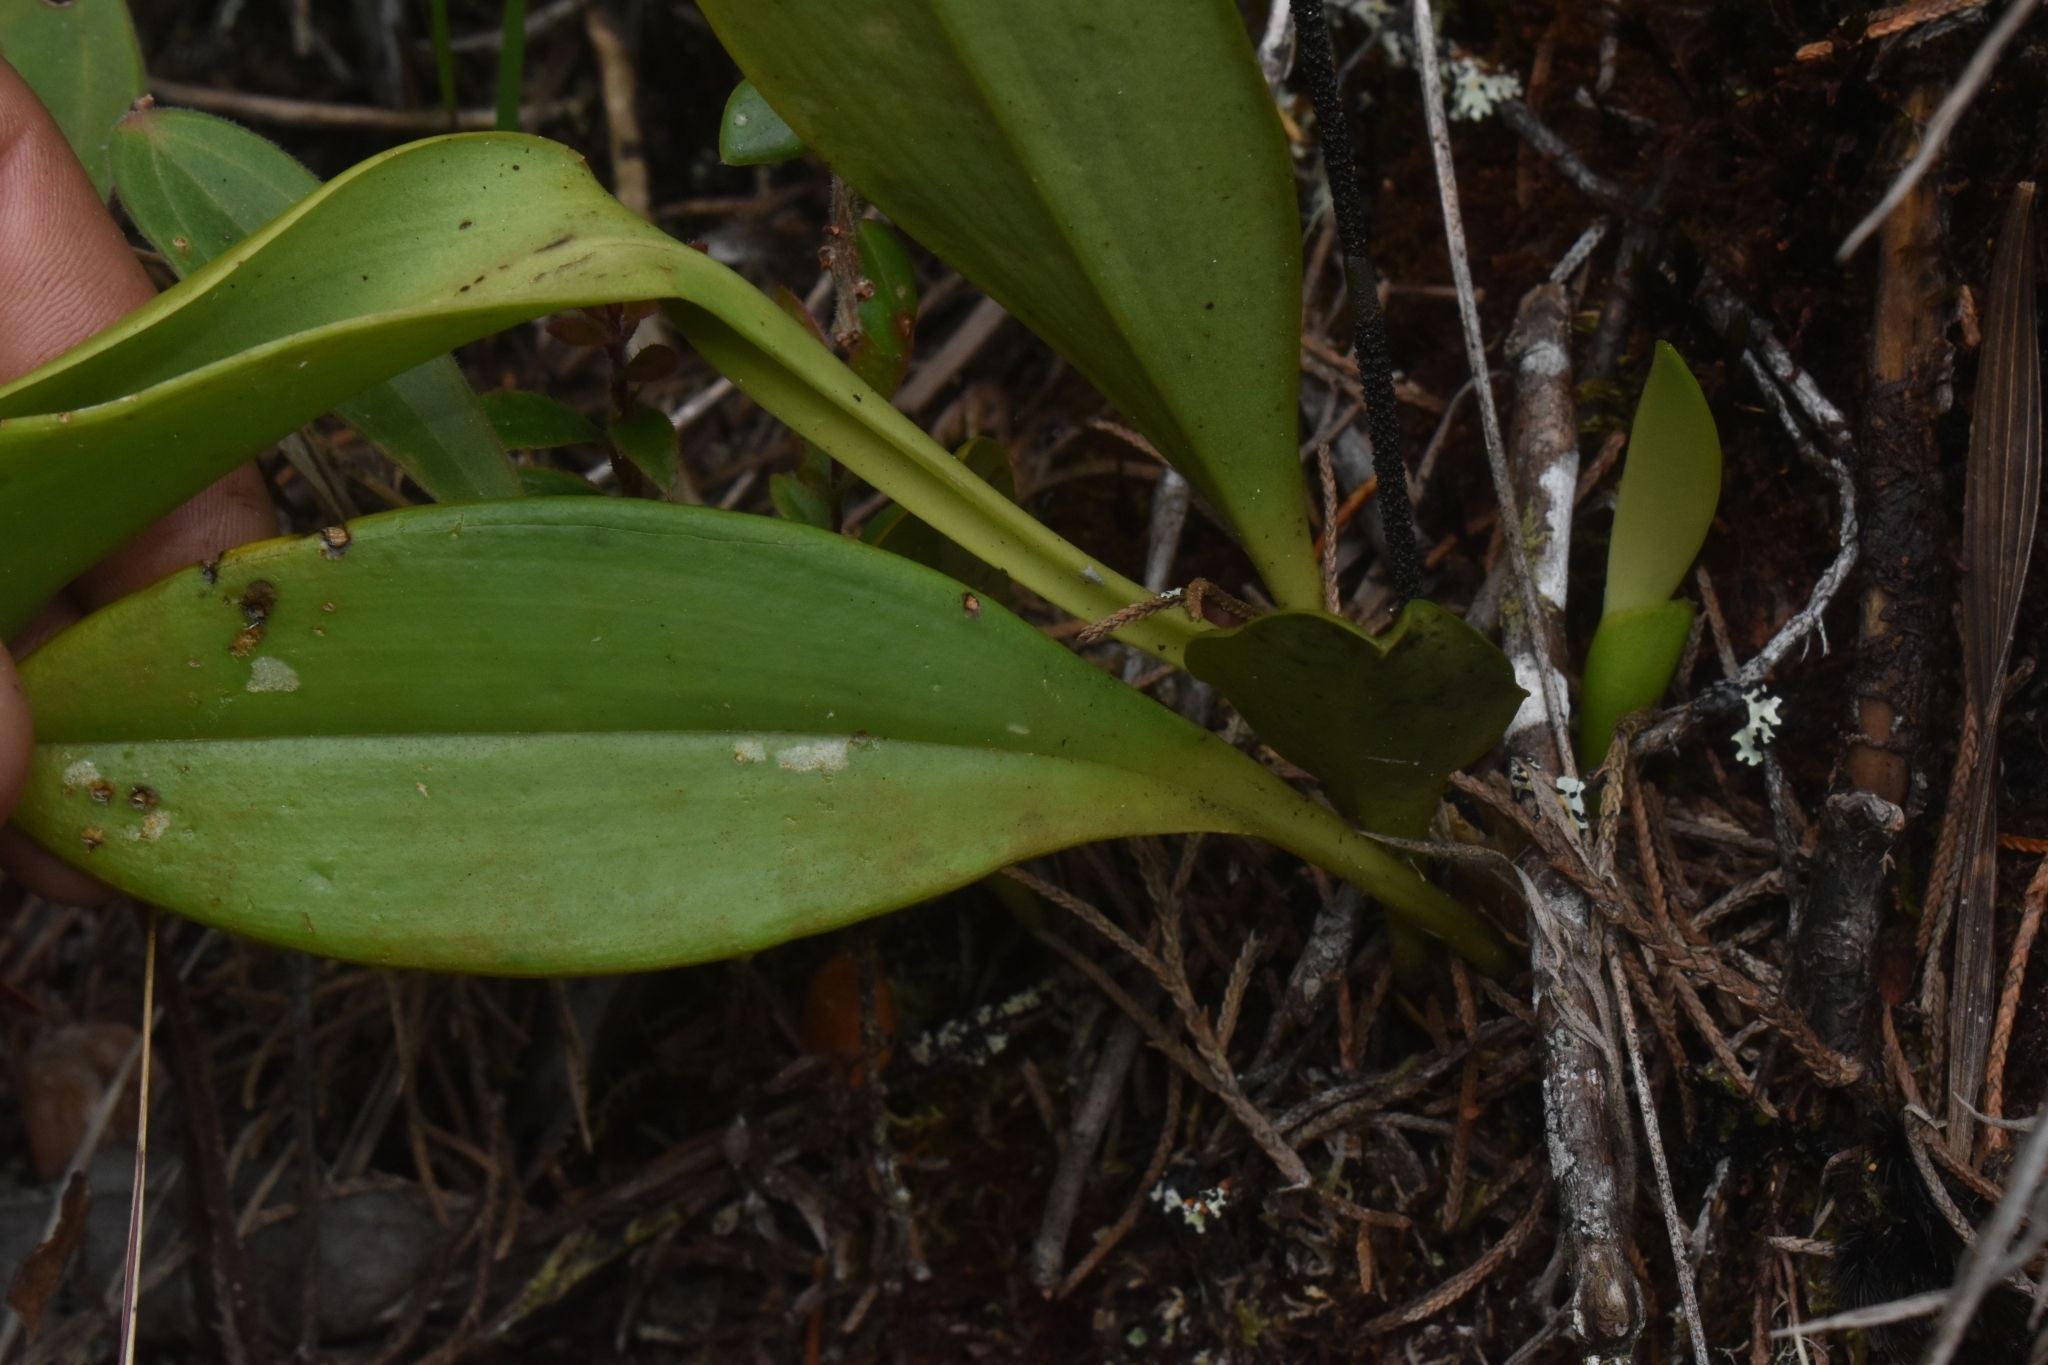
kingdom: Plantae
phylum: Tracheophyta
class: Liliopsida
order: Asparagales
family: Orchidaceae
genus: Scaphosepalum
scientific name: Scaphosepalum antenniferum
